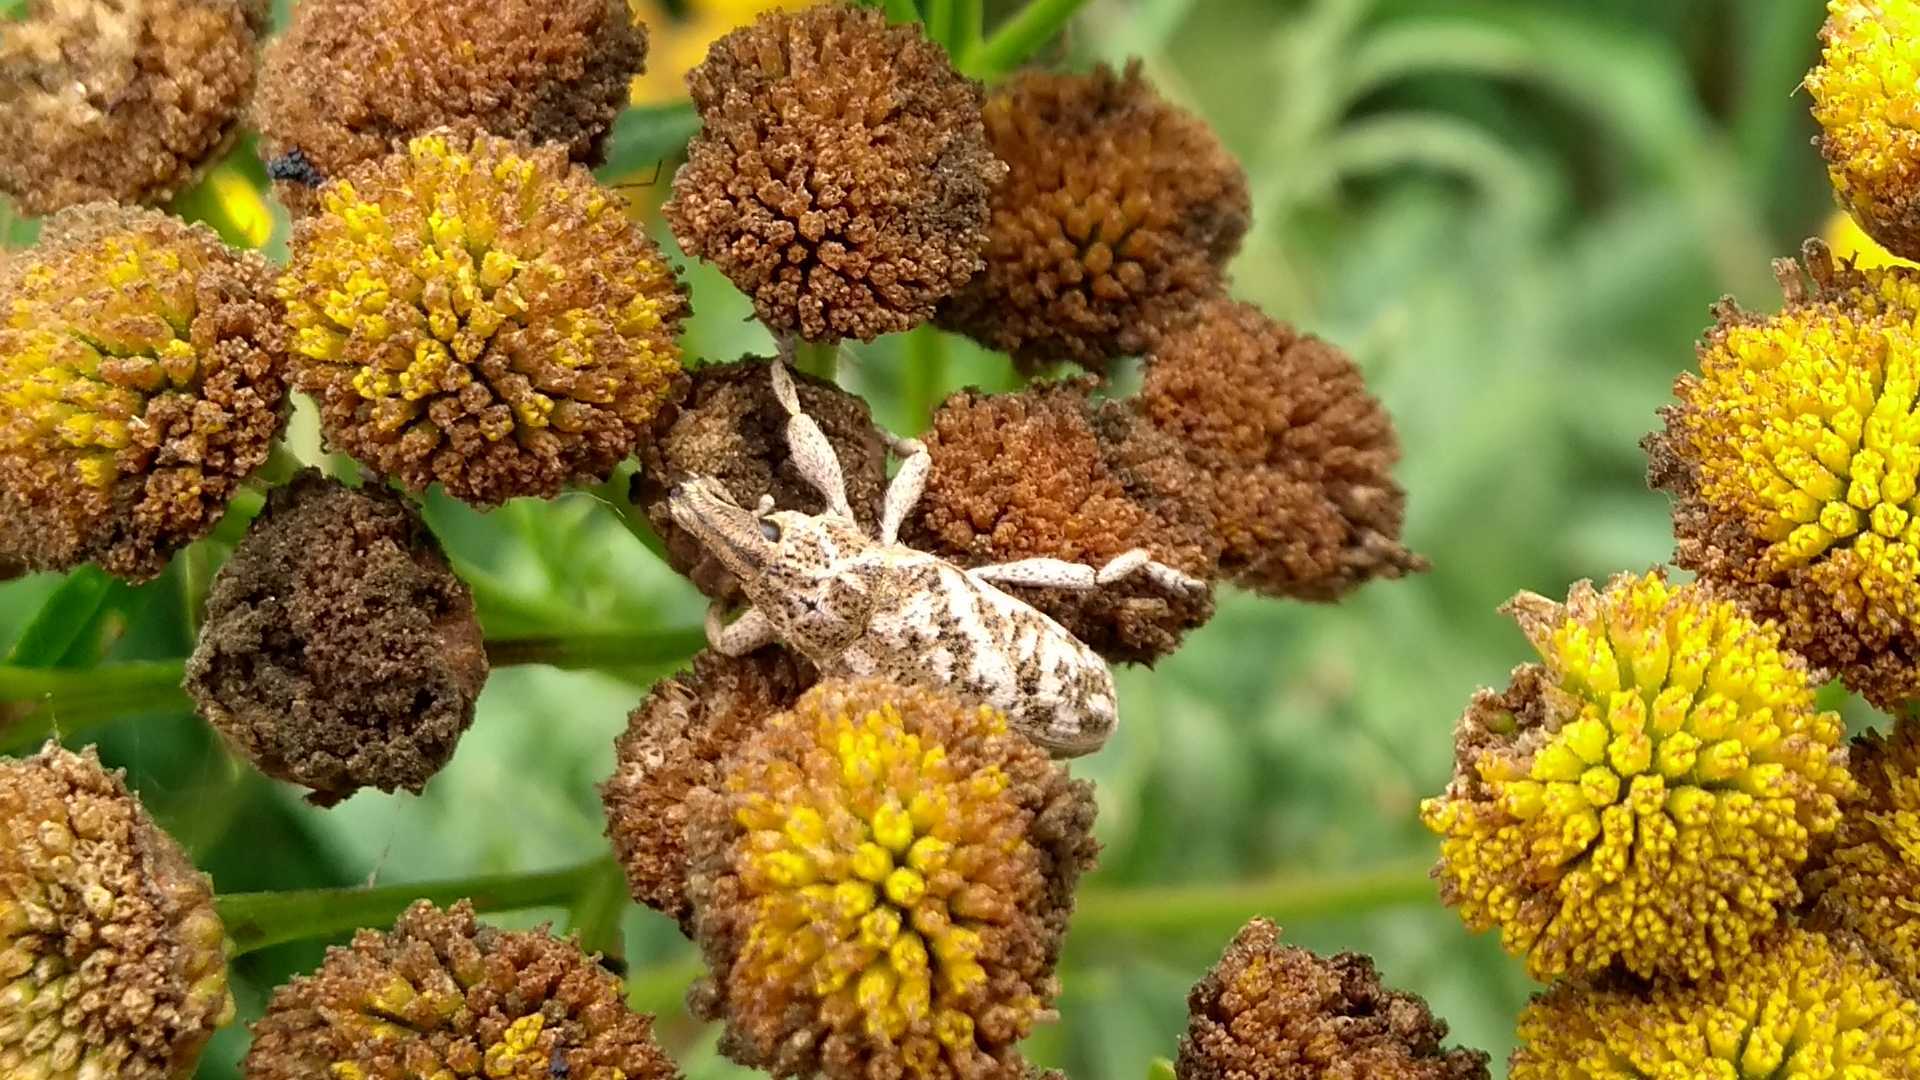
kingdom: Animalia
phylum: Arthropoda
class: Insecta
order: Coleoptera
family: Curculionidae
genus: Cyphocleonus
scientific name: Cyphocleonus dealbatus
